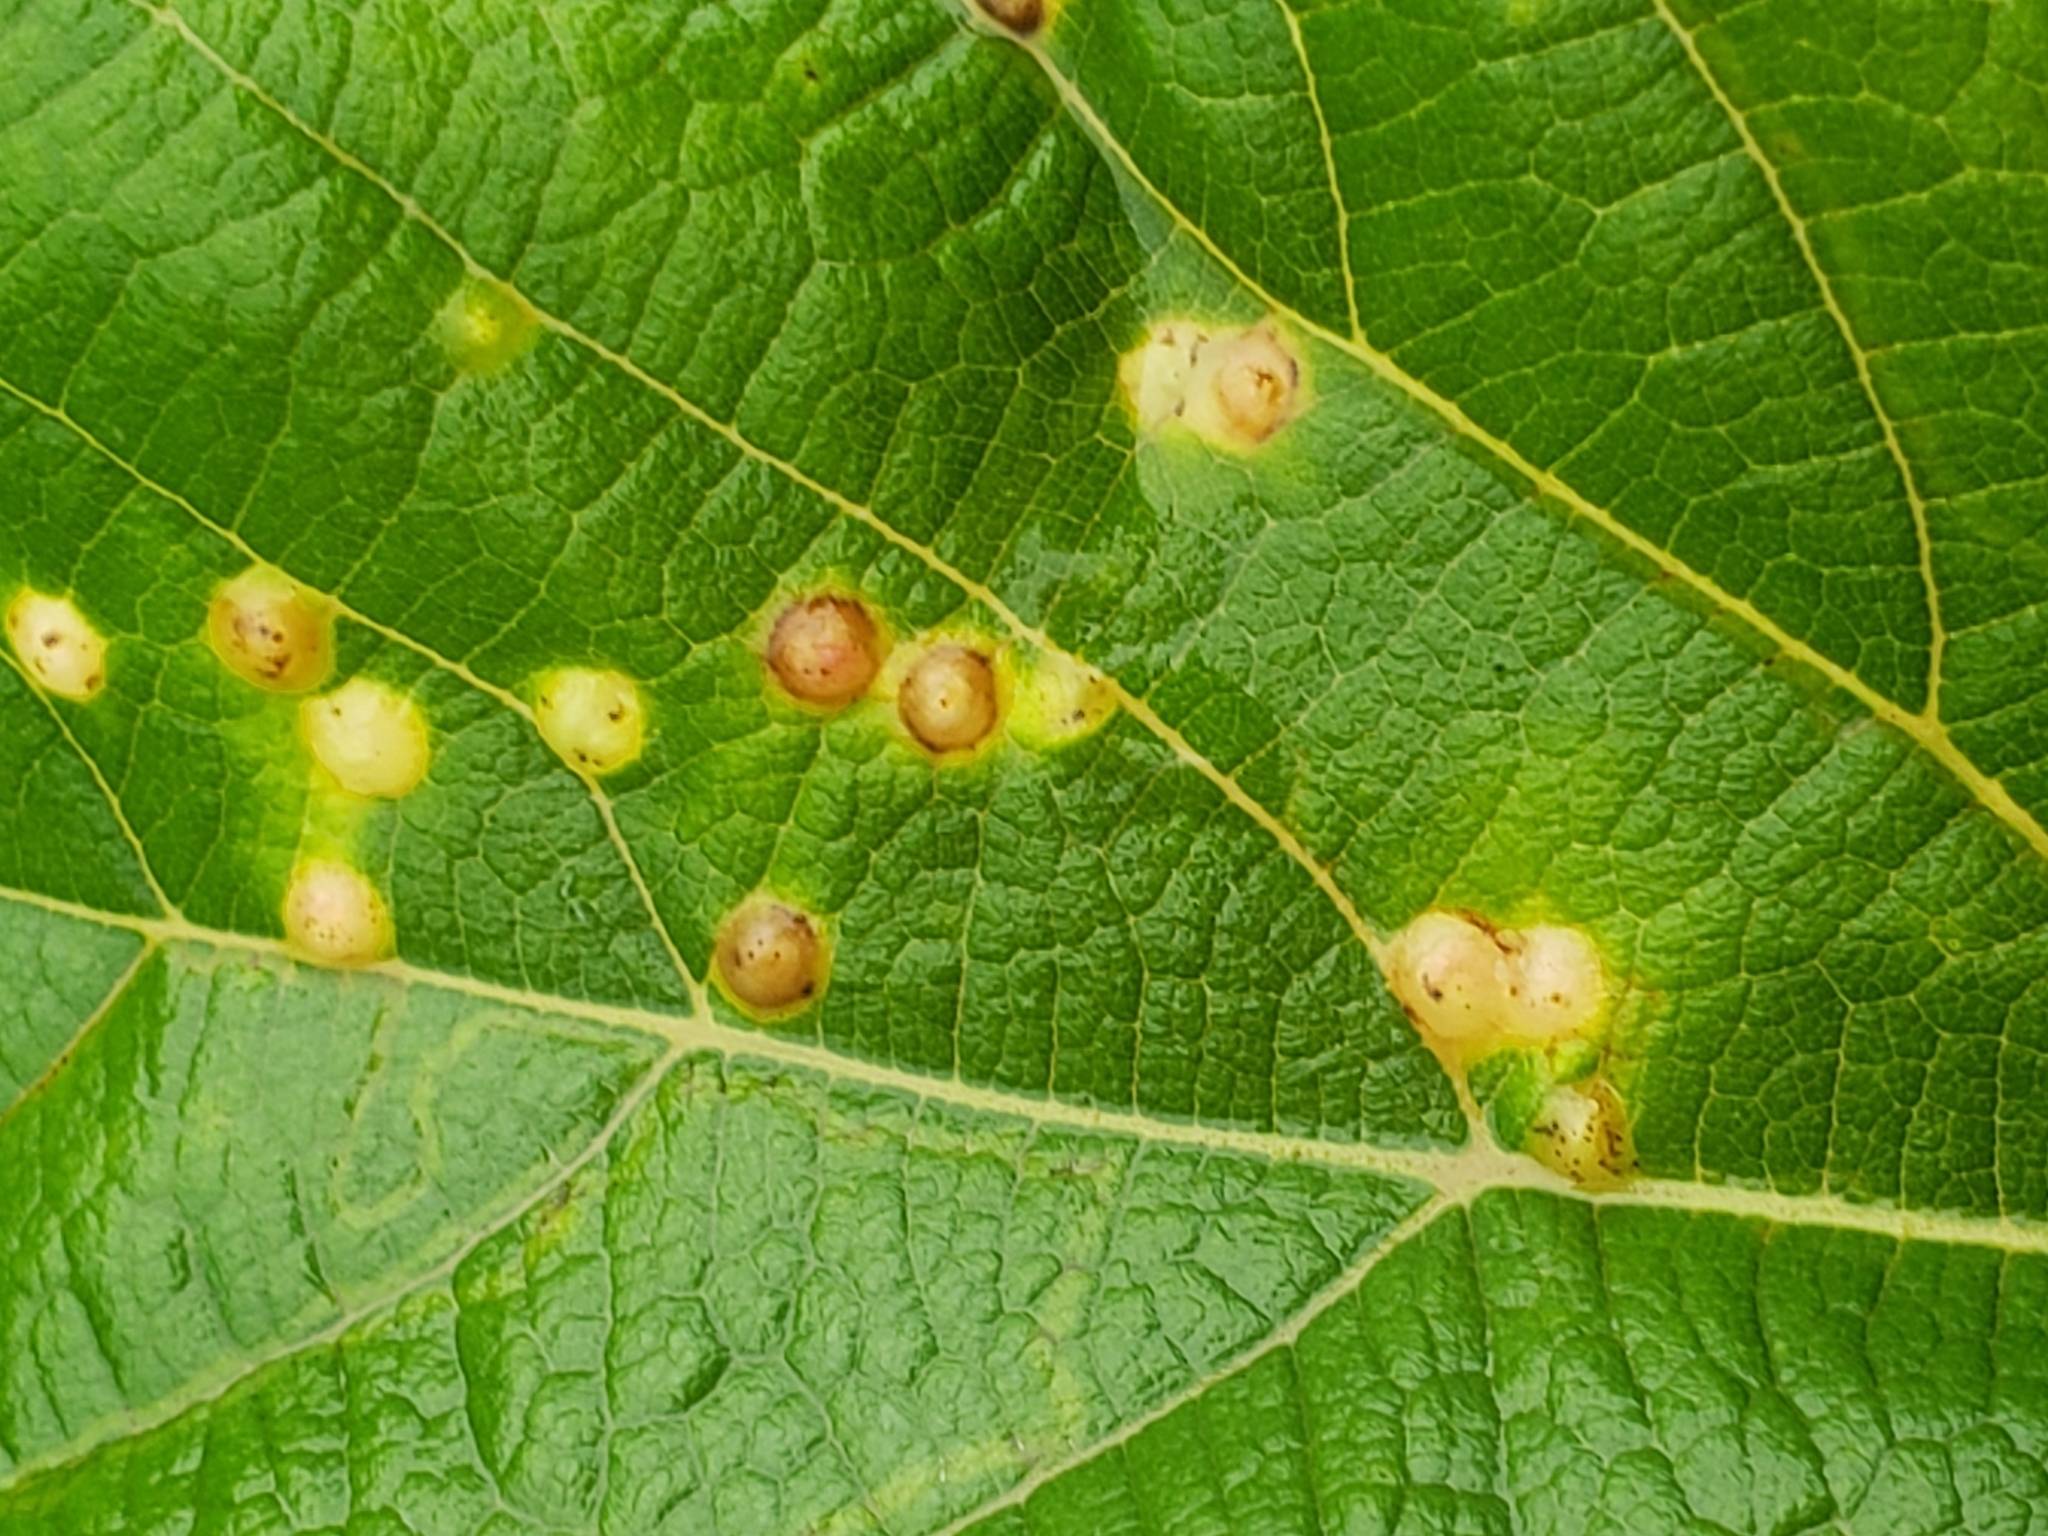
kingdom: Animalia
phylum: Arthropoda
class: Insecta
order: Diptera
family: Cecidomyiidae
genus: Vitisiella
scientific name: Vitisiella brevicauda
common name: Grape tumid gallmaker midge
